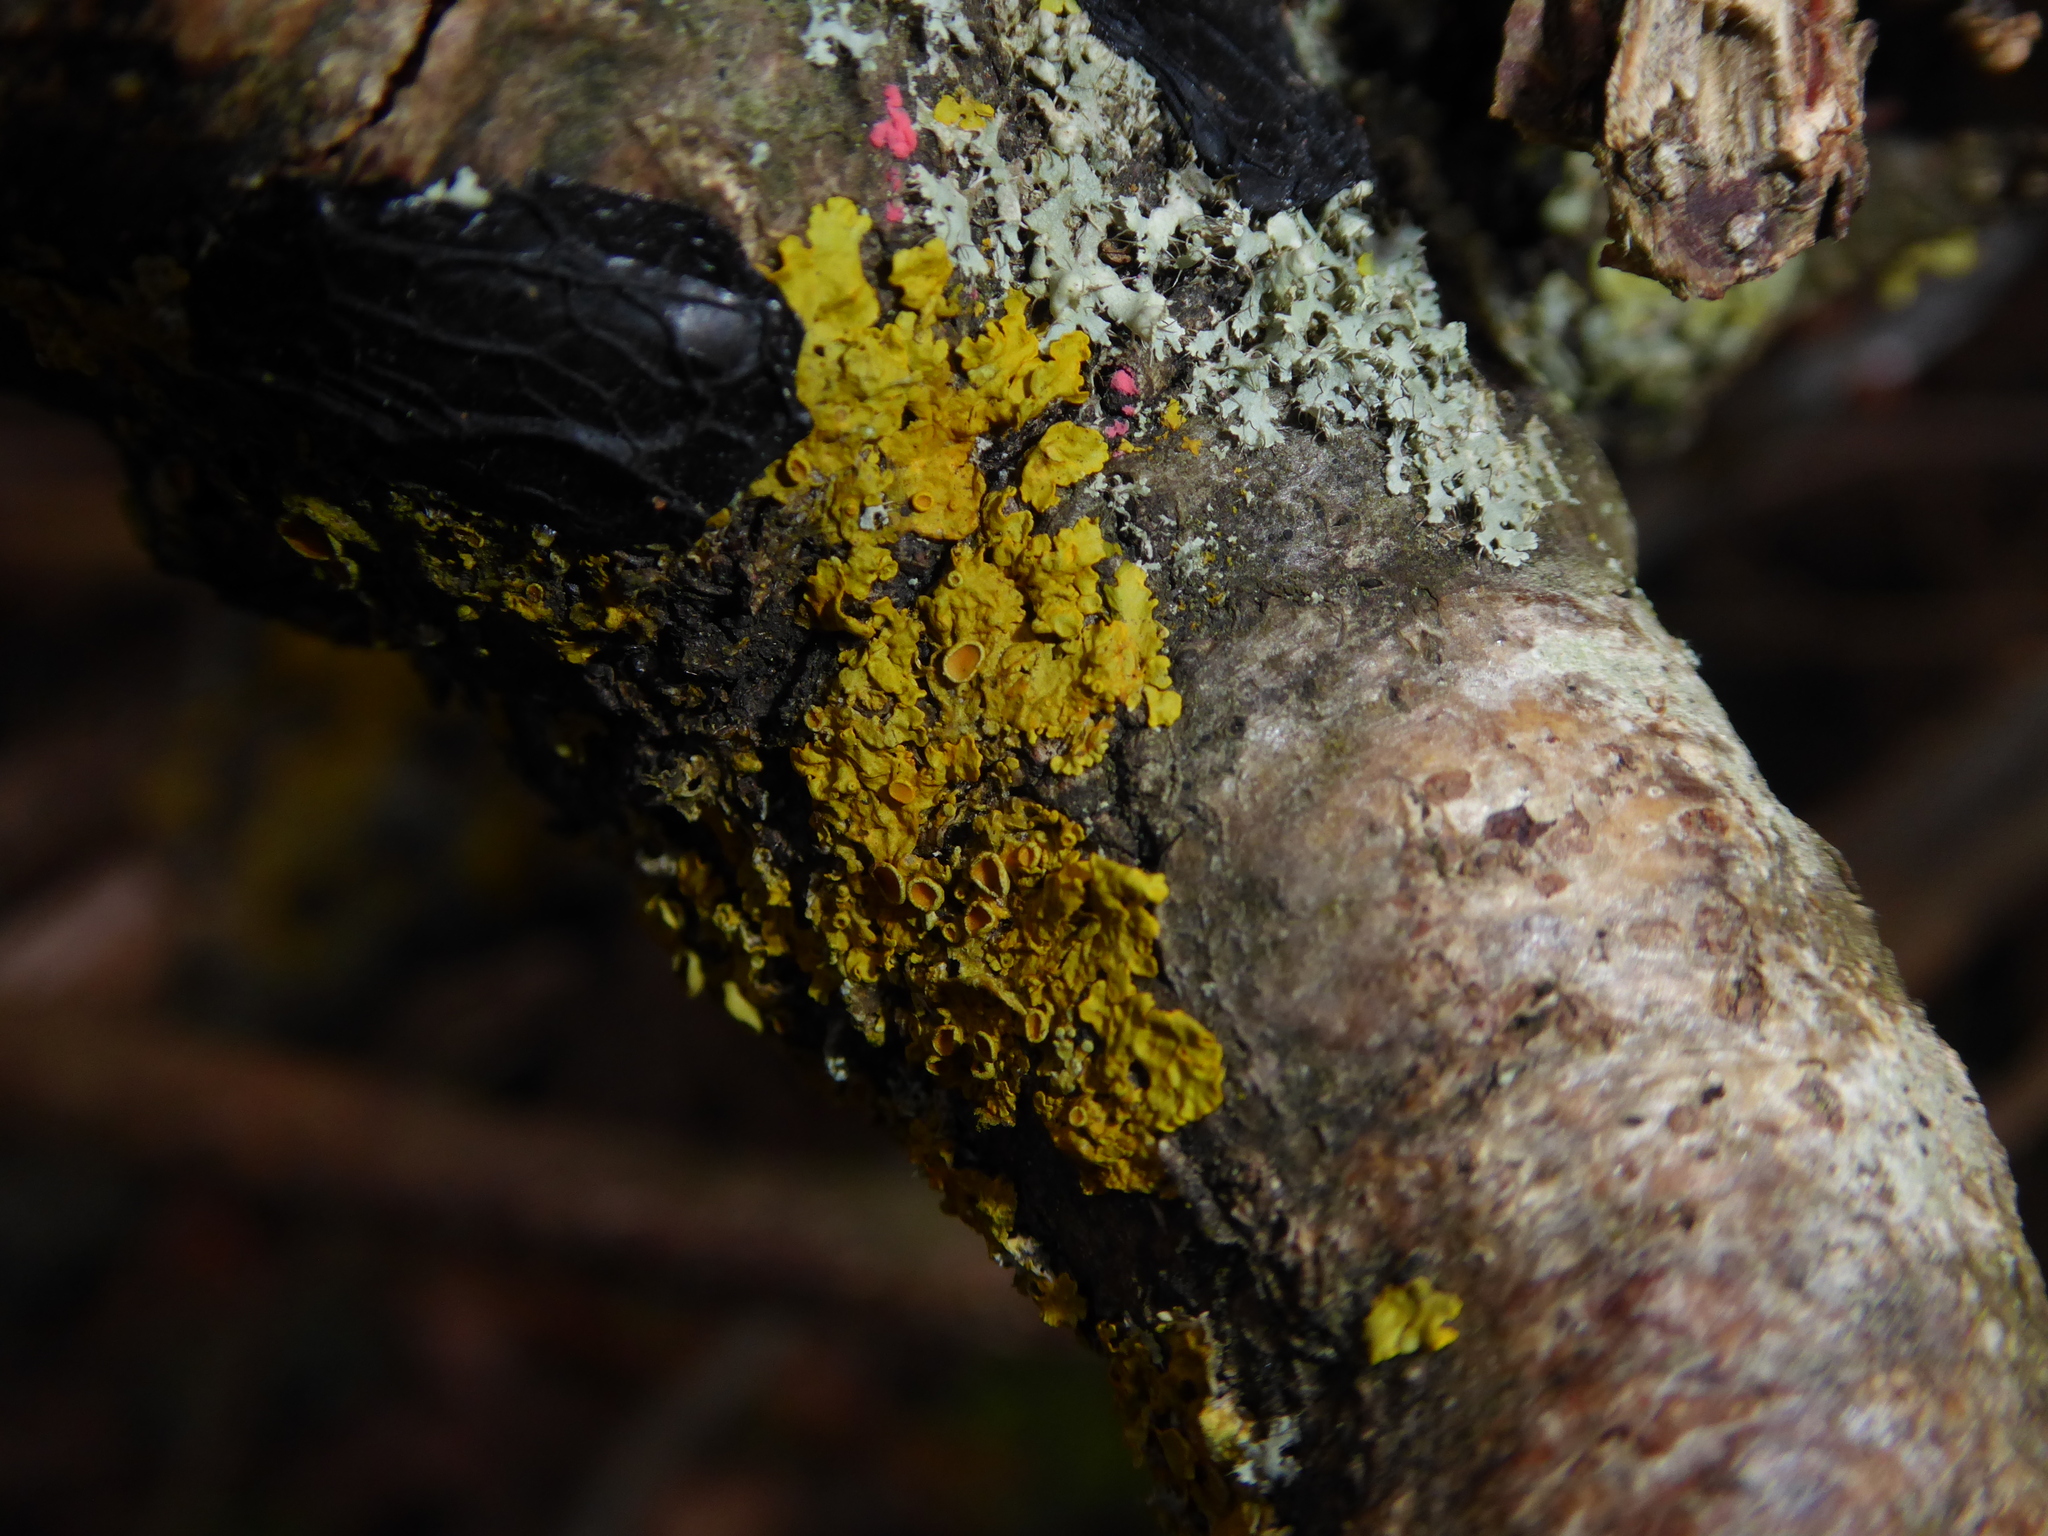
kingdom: Fungi
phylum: Ascomycota
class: Lecanoromycetes
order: Teloschistales
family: Teloschistaceae
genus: Xanthoria
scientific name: Xanthoria parietina
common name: Common orange lichen
